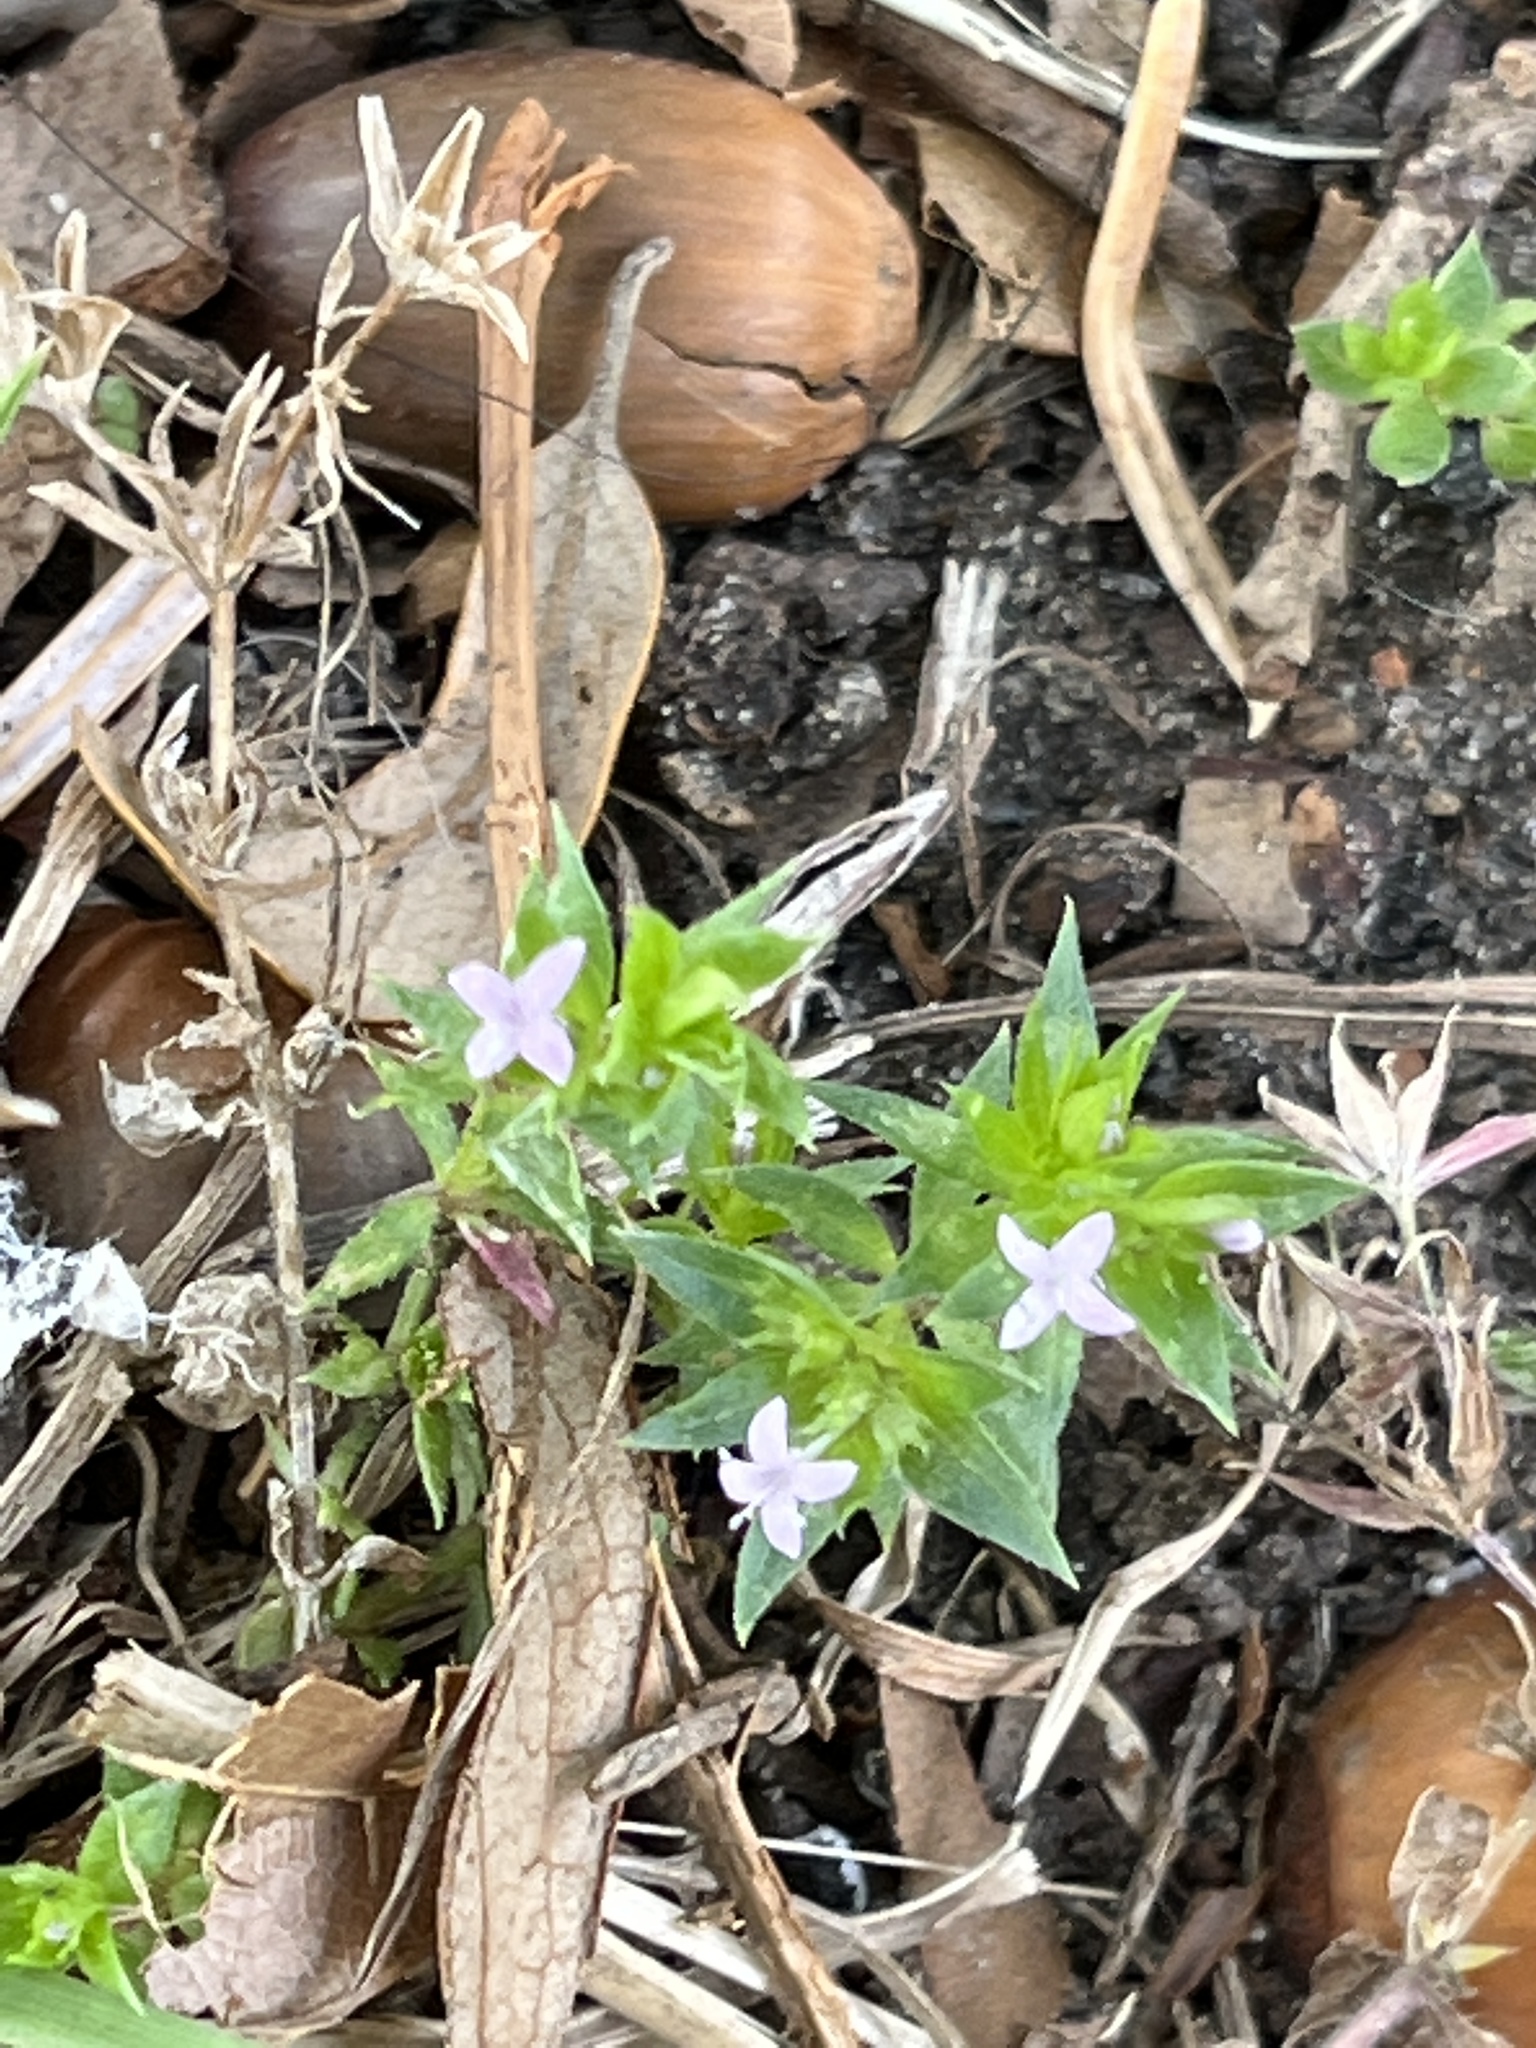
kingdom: Plantae
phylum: Tracheophyta
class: Magnoliopsida
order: Gentianales
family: Rubiaceae
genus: Sherardia
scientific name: Sherardia arvensis
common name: Field madder
